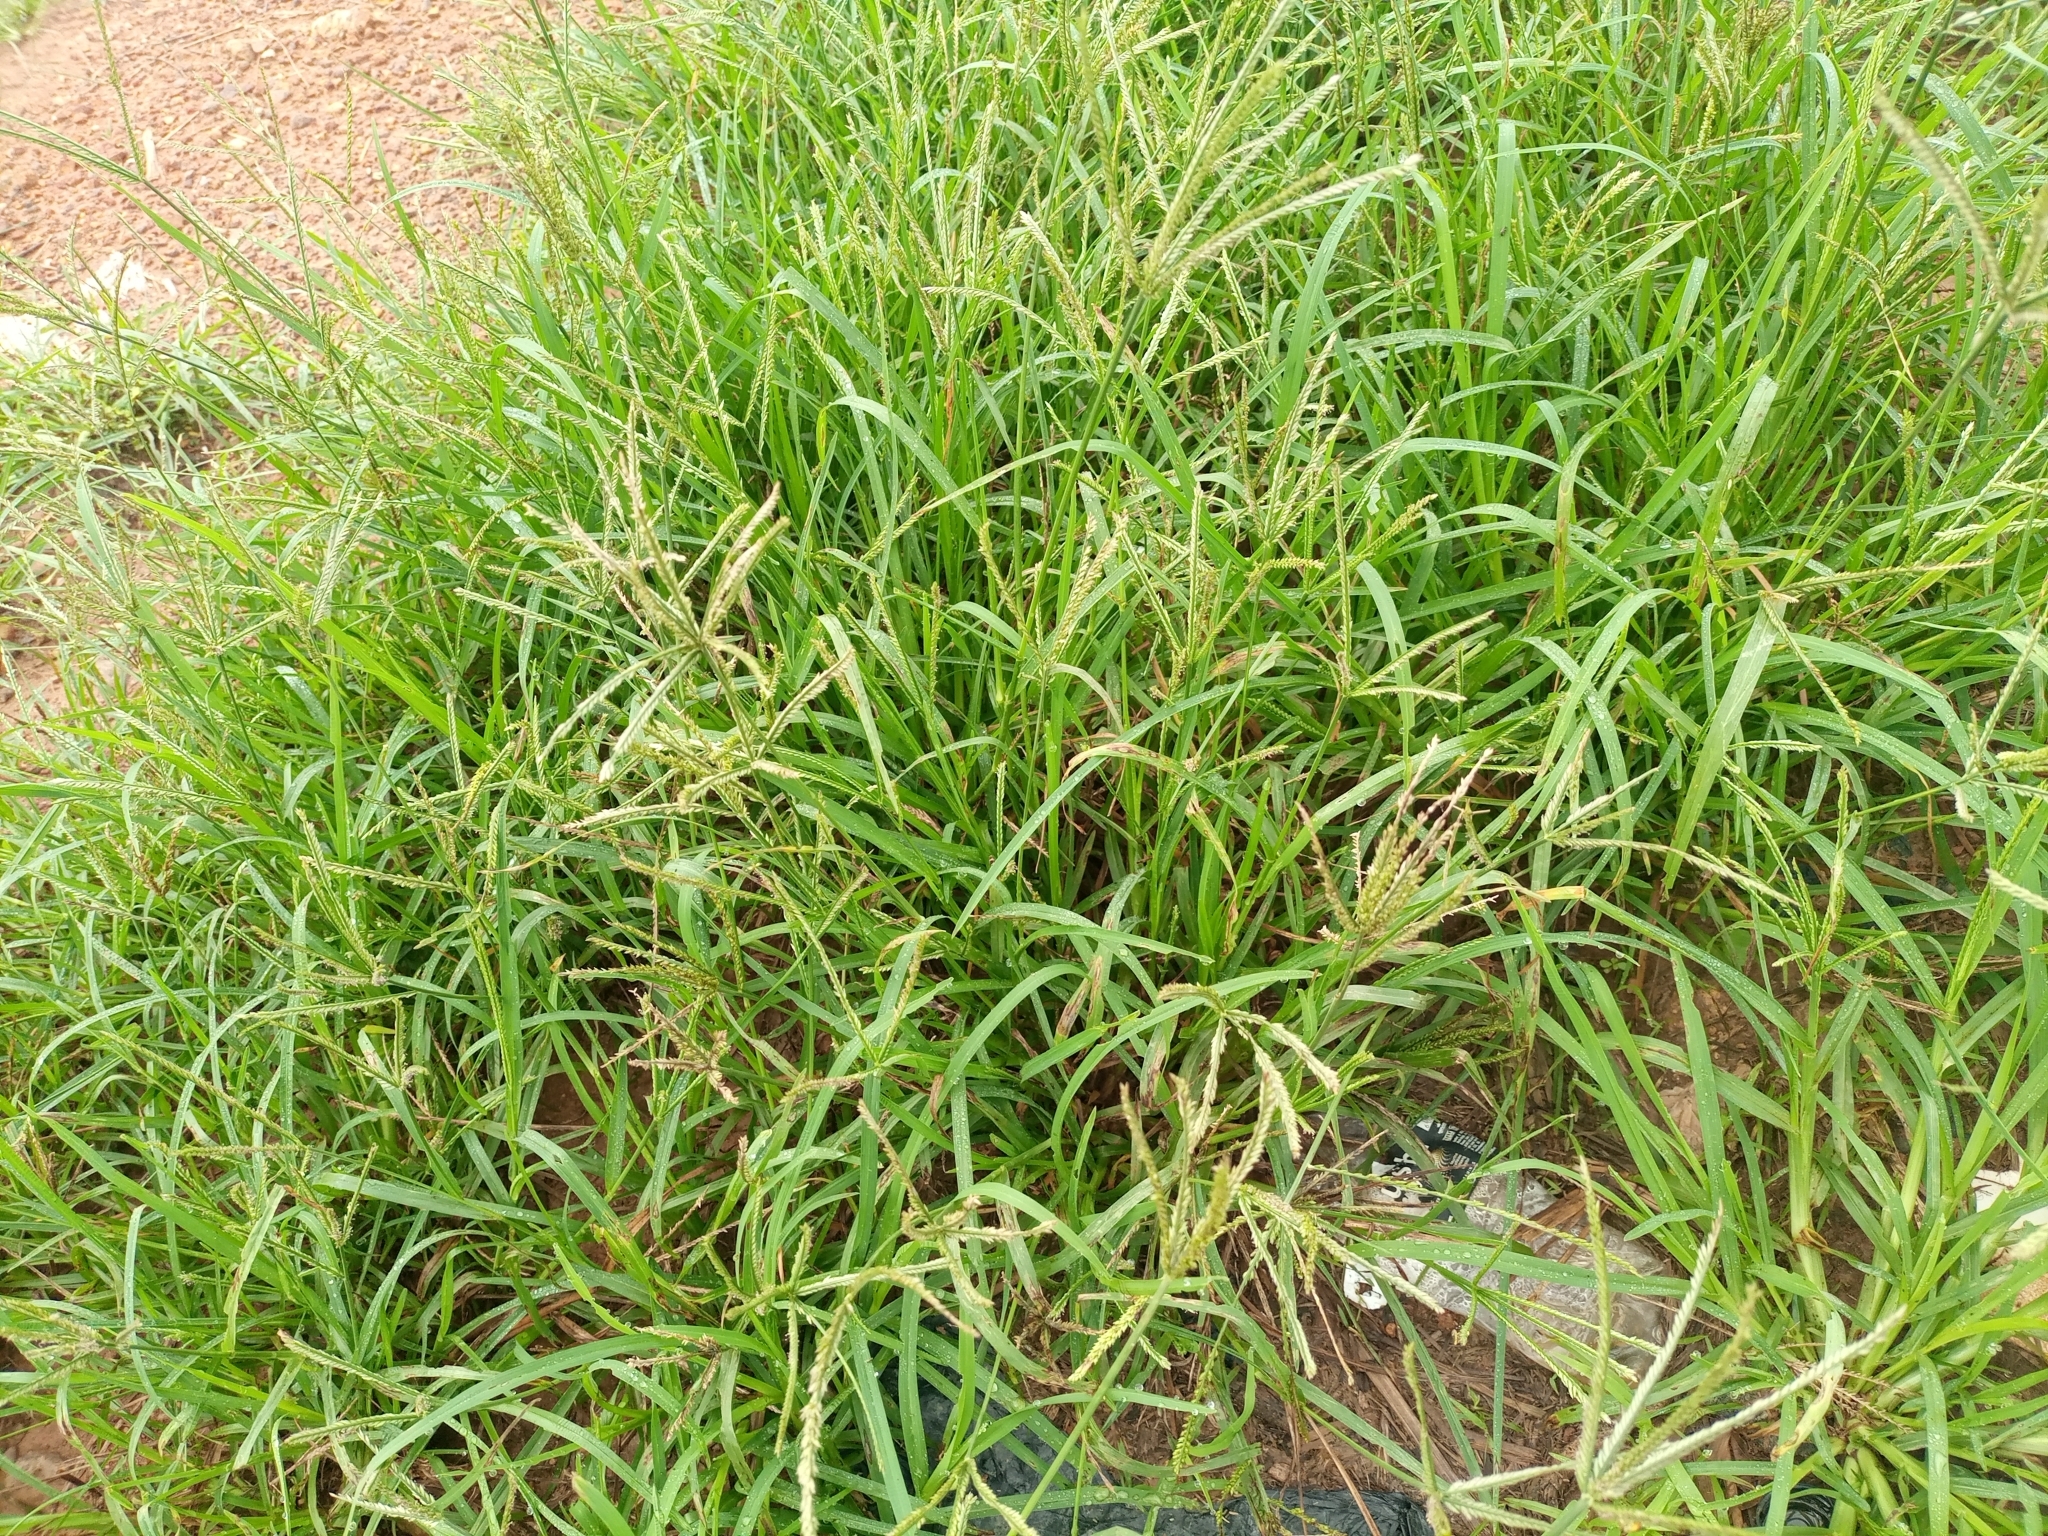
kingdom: Plantae
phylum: Tracheophyta
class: Liliopsida
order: Poales
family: Poaceae
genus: Eleusine
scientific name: Eleusine indica
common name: Yard-grass
